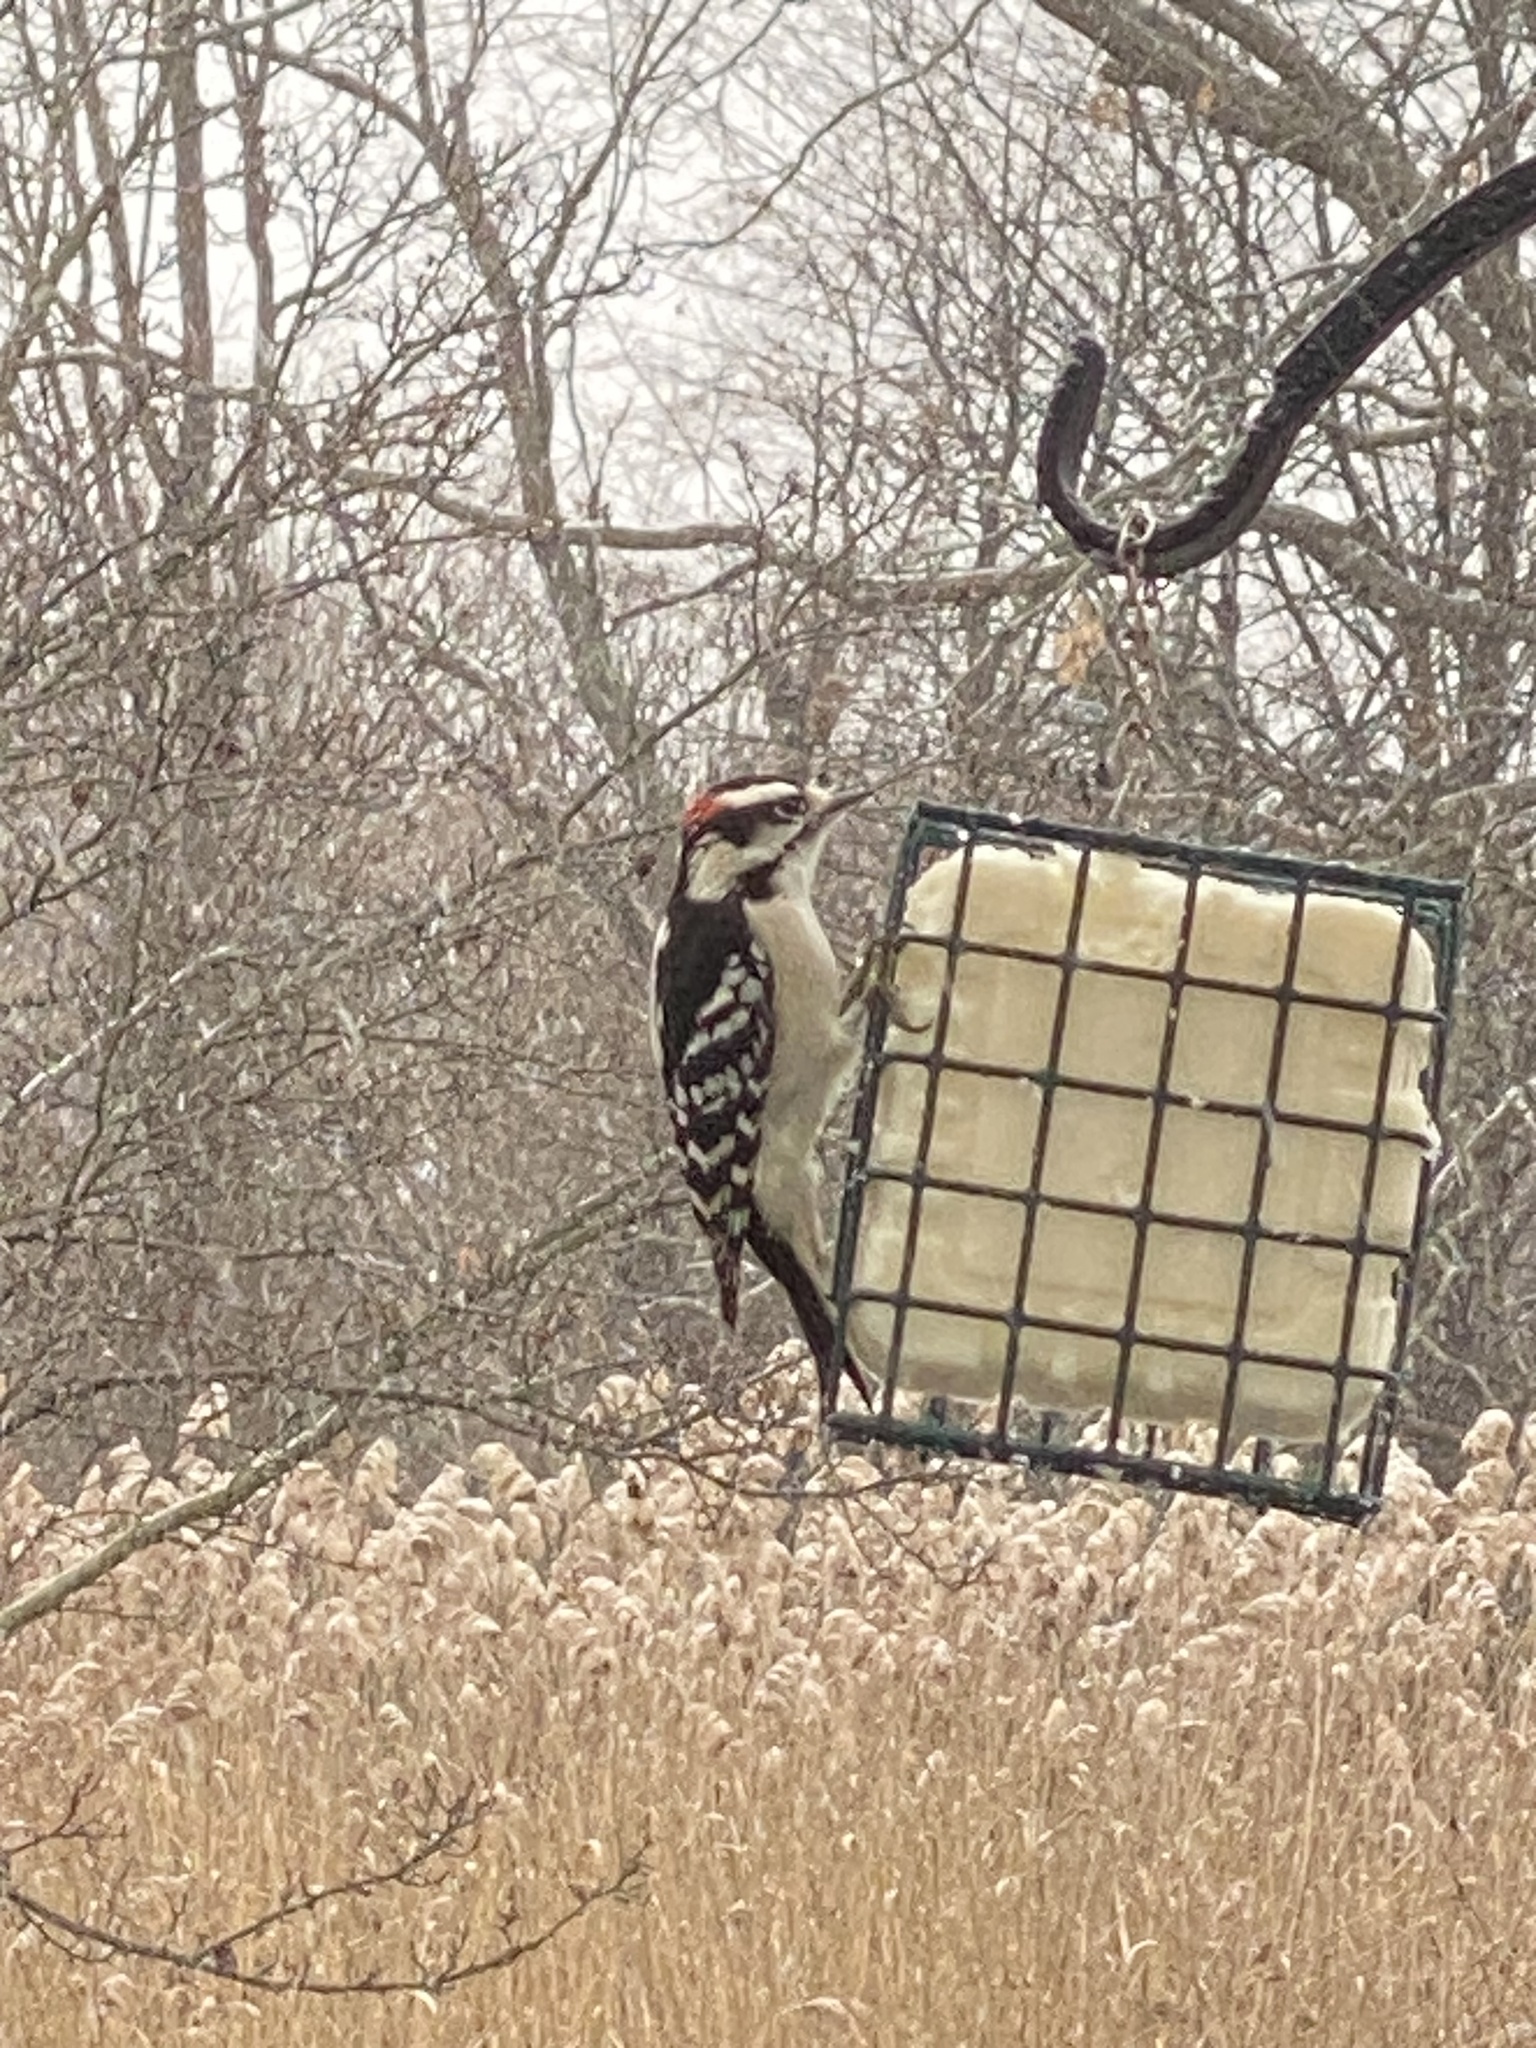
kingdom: Animalia
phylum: Chordata
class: Aves
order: Piciformes
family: Picidae
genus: Dryobates
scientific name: Dryobates pubescens
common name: Downy woodpecker
